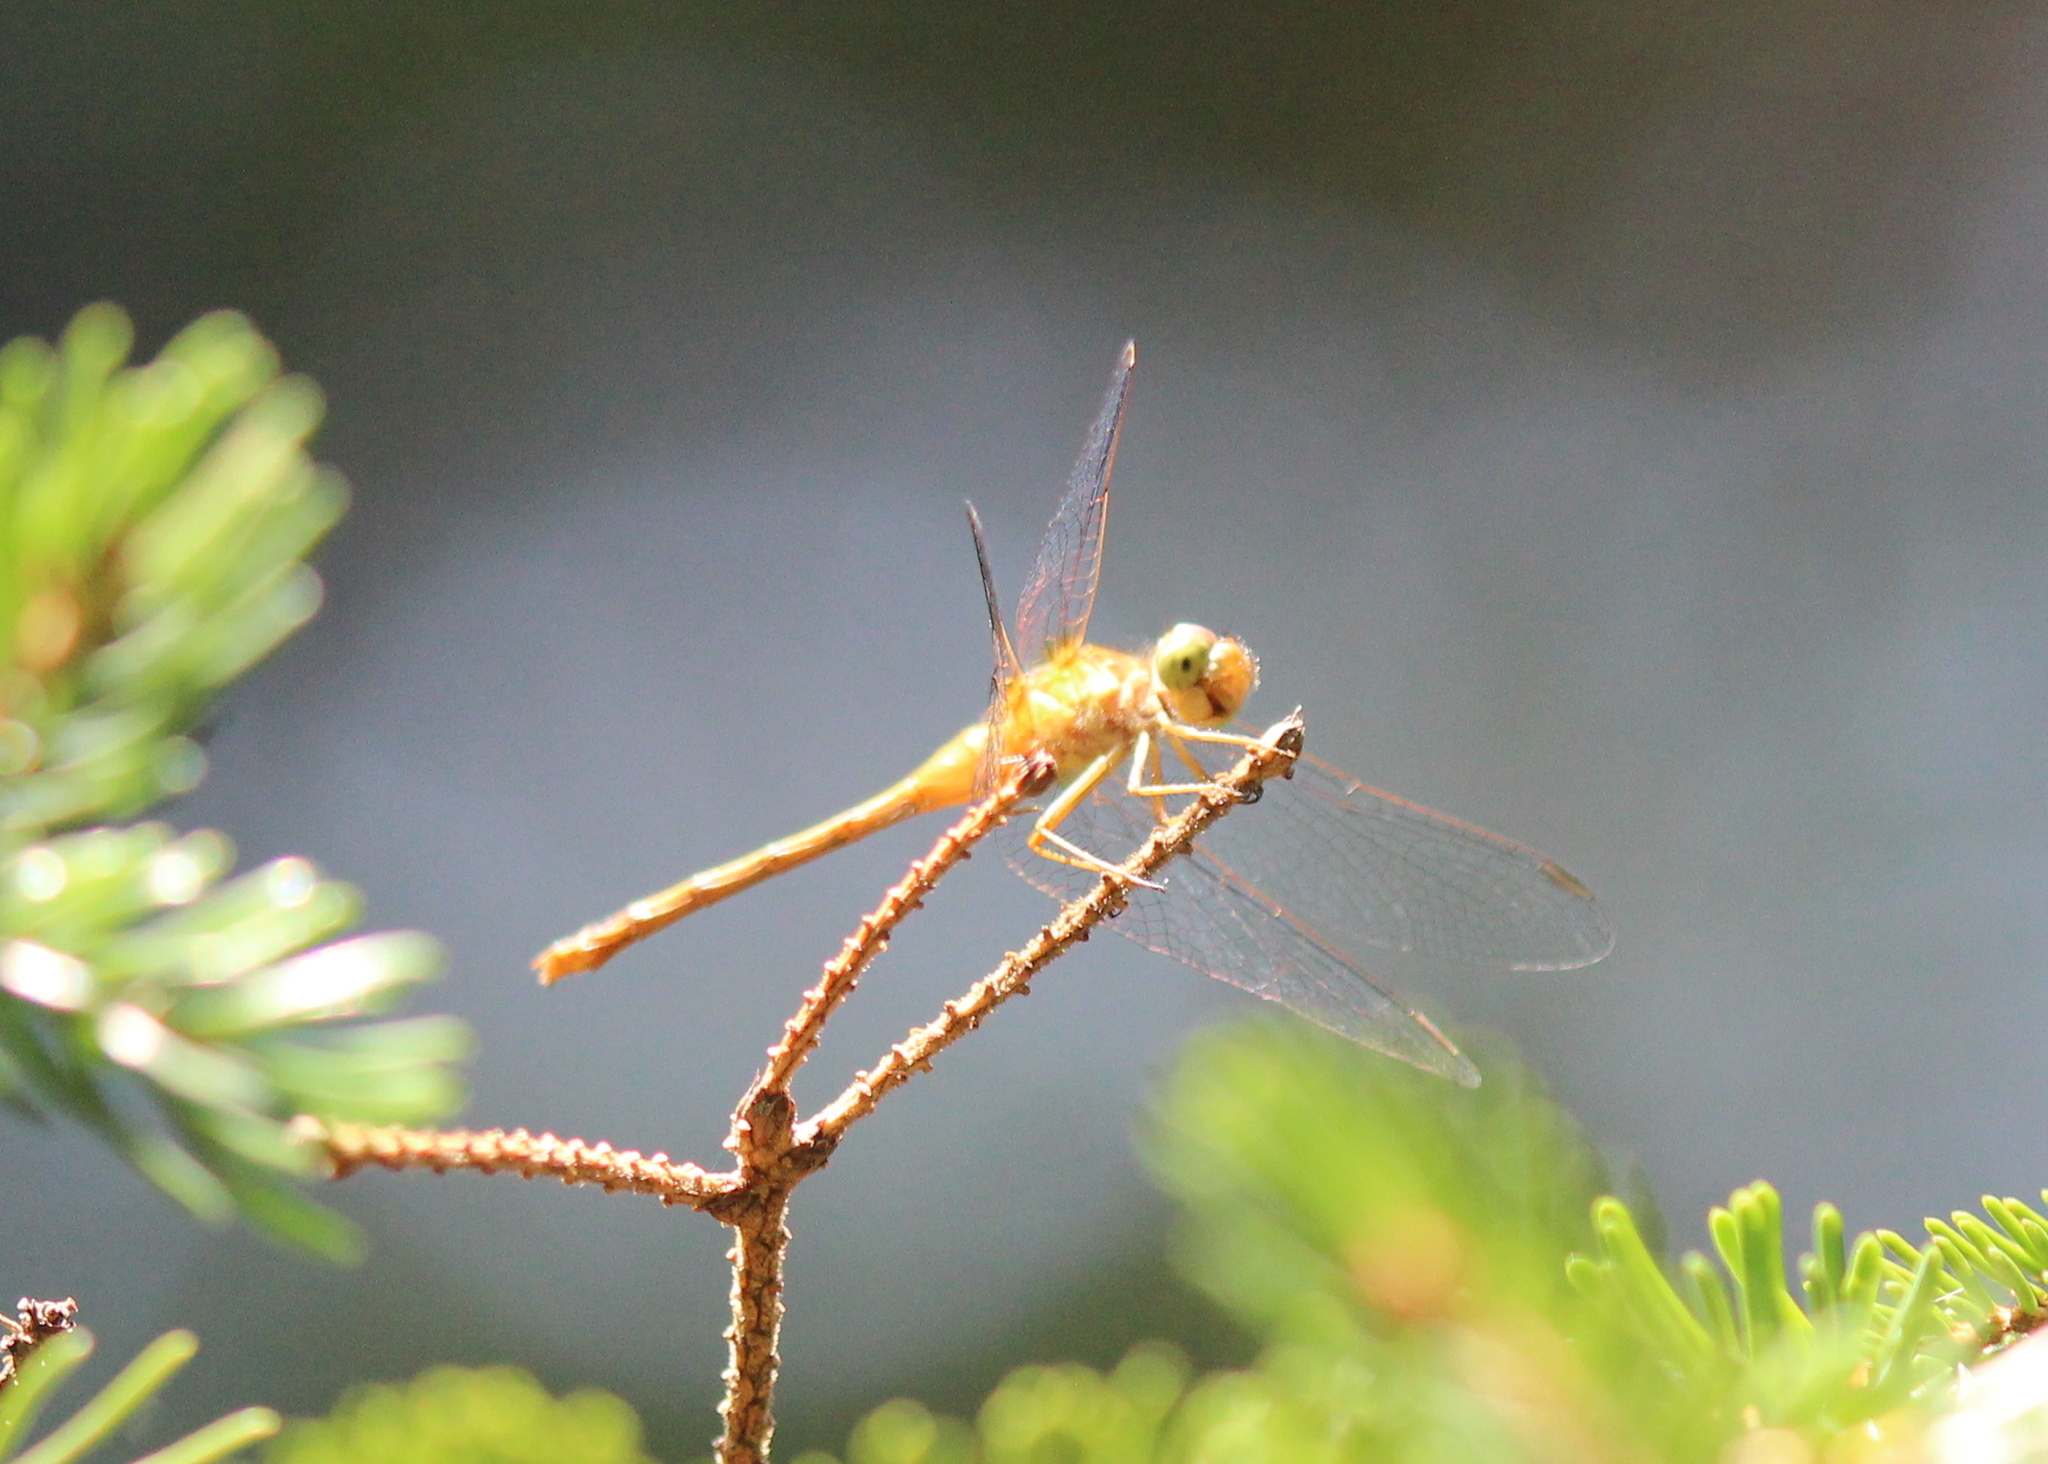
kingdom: Animalia
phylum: Arthropoda
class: Insecta
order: Odonata
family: Libellulidae
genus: Sympetrum
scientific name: Sympetrum vicinum
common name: Autumn meadowhawk
